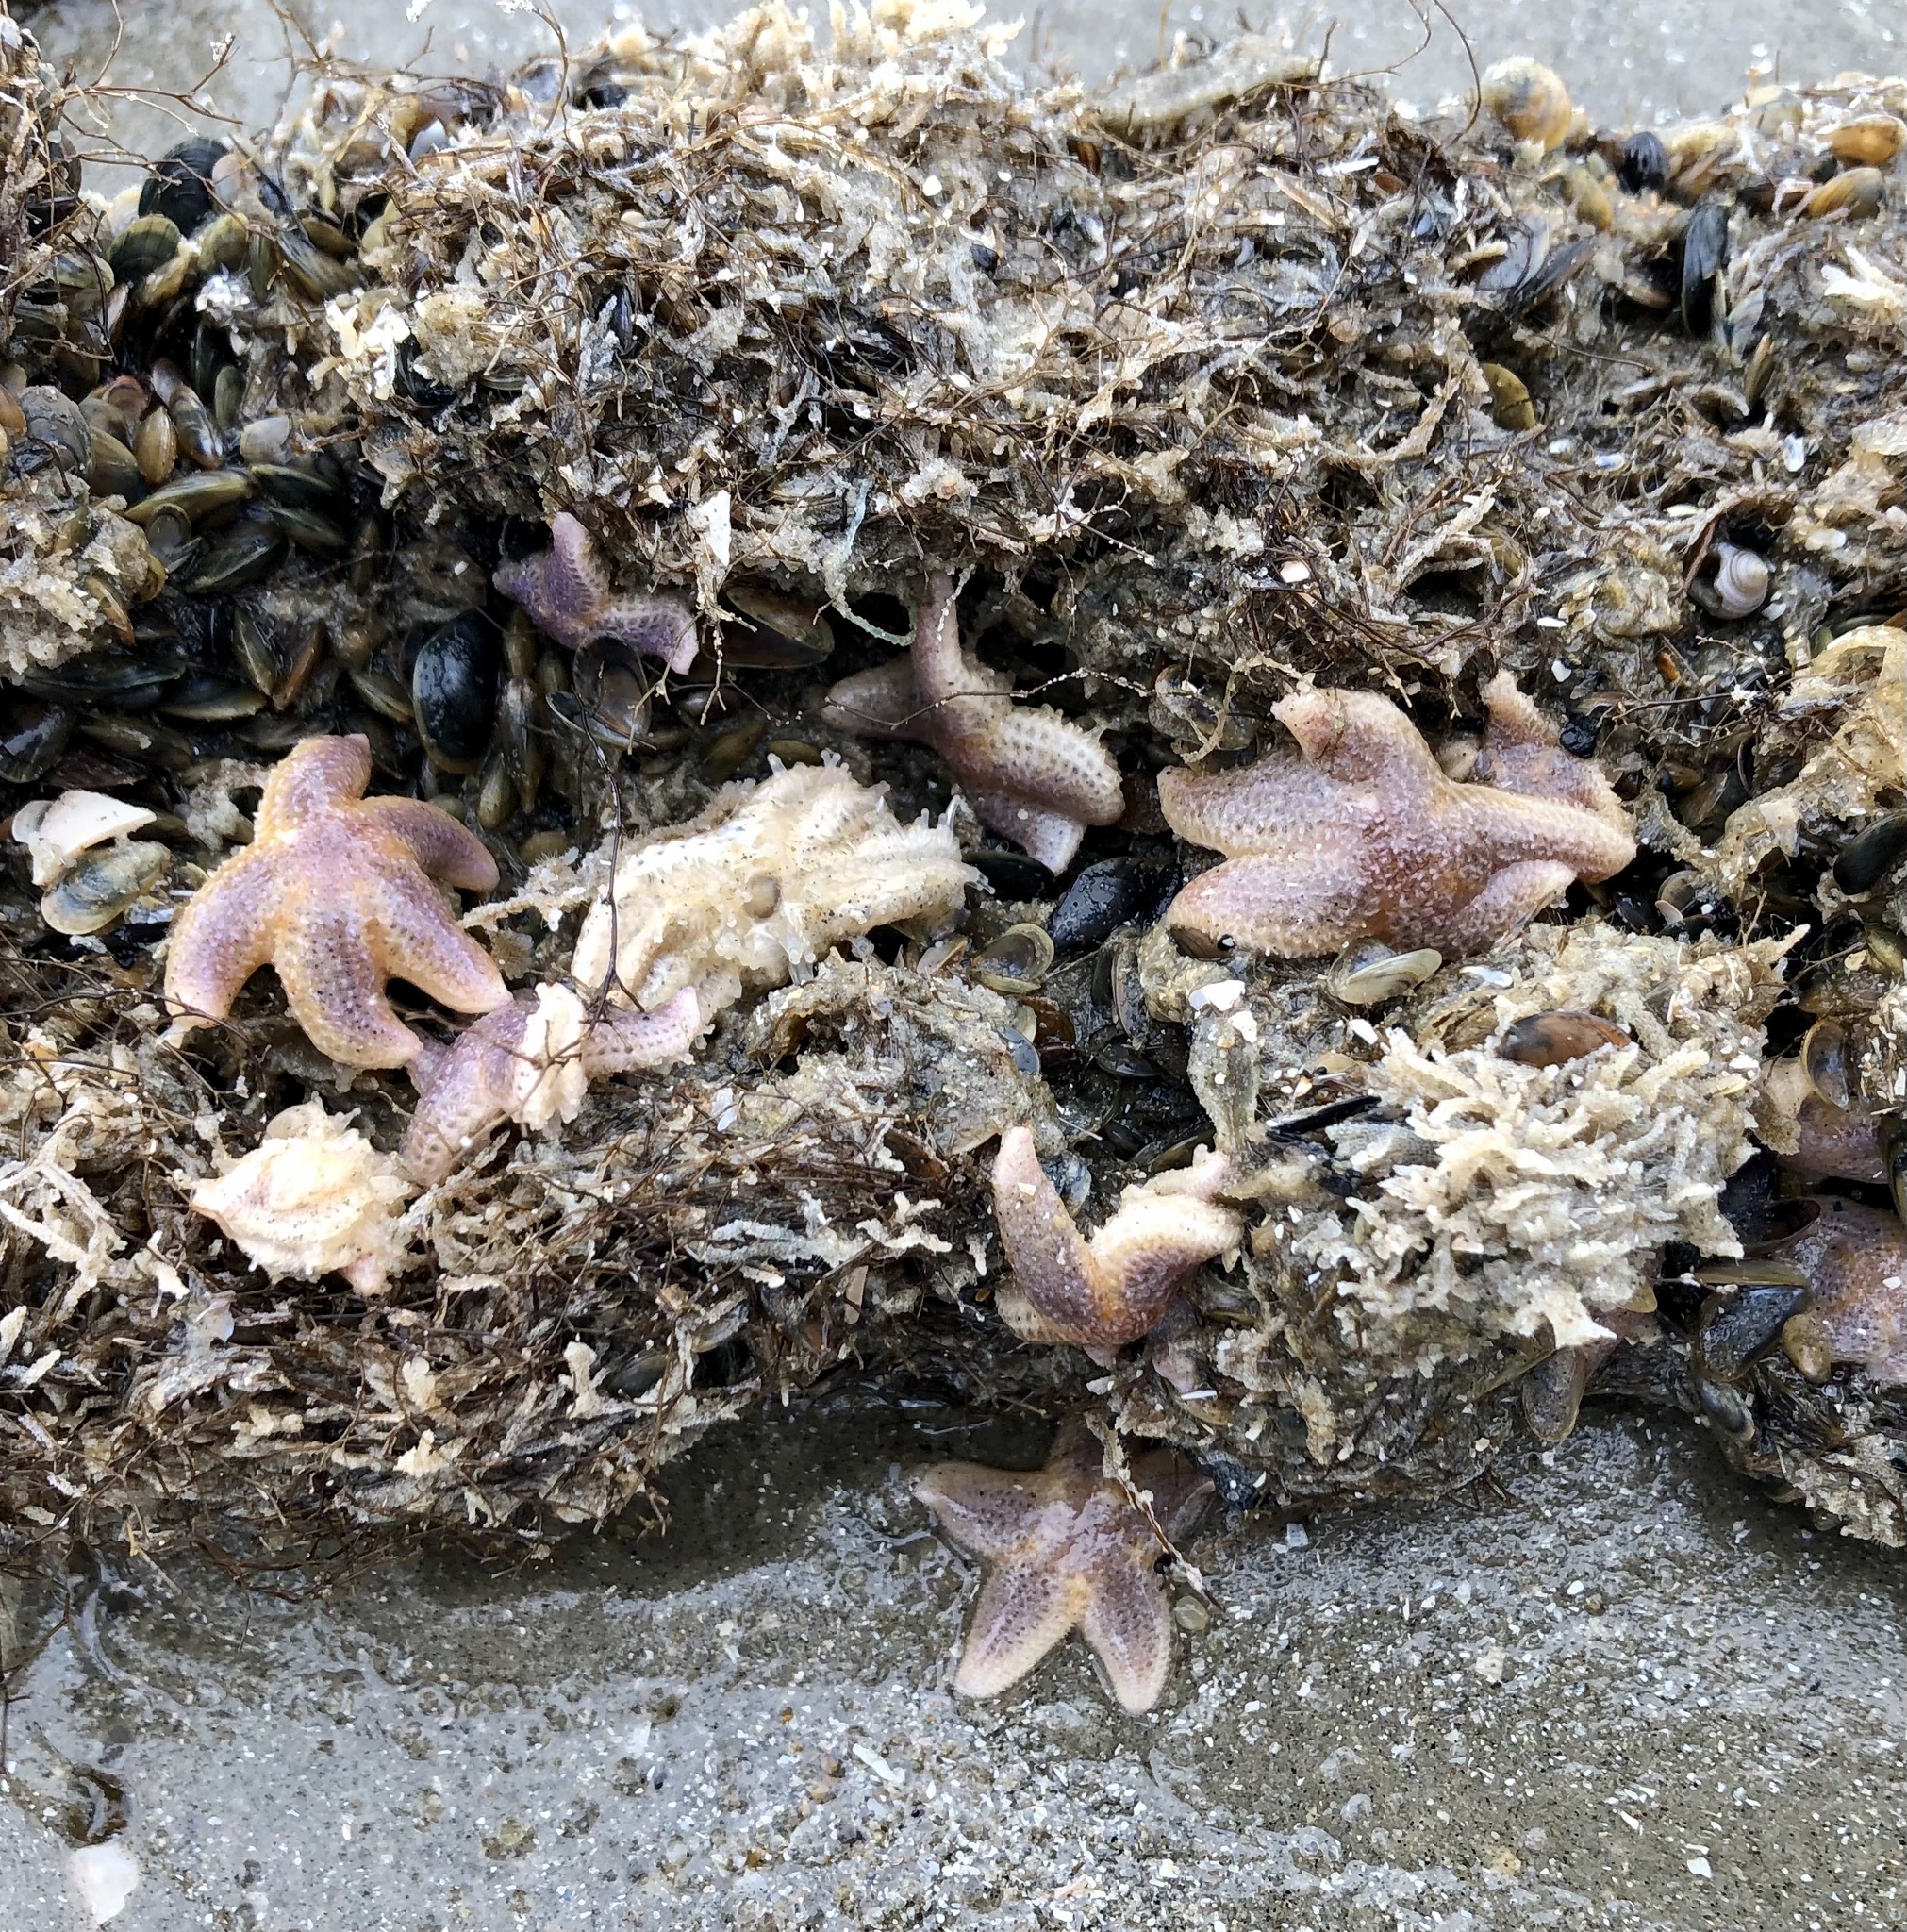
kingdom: Animalia
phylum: Echinodermata
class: Asteroidea
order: Forcipulatida
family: Asteriidae
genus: Asterias
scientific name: Asterias rubens
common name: Common starfish
